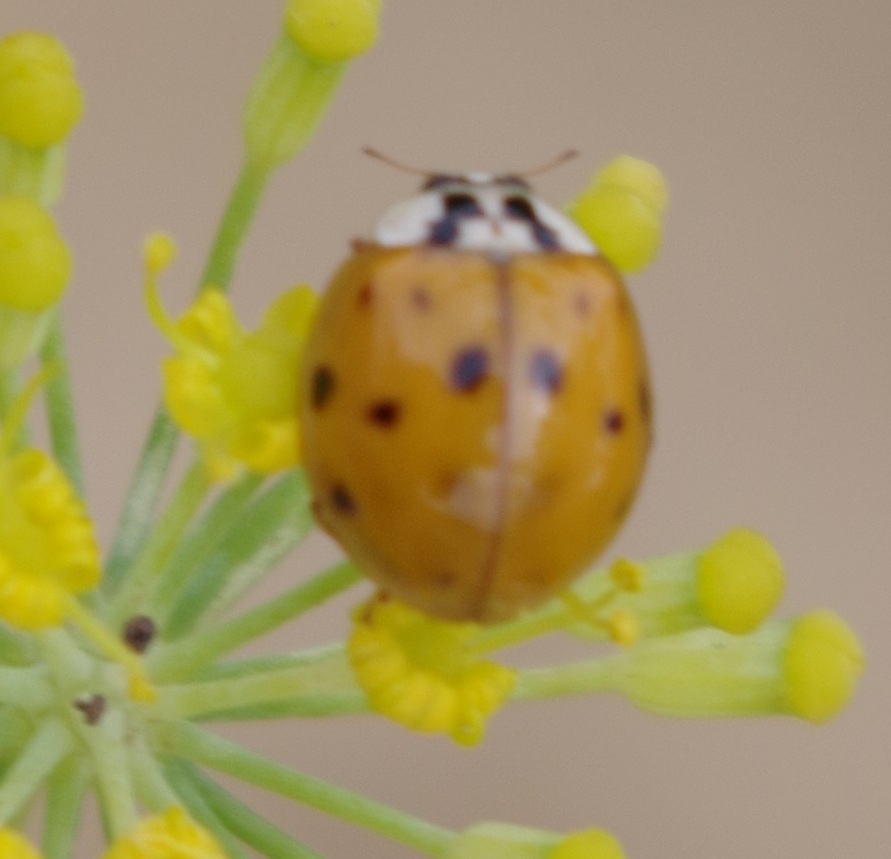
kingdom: Animalia
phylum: Arthropoda
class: Insecta
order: Coleoptera
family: Coccinellidae
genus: Harmonia
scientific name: Harmonia axyridis
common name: Harlequin ladybird
